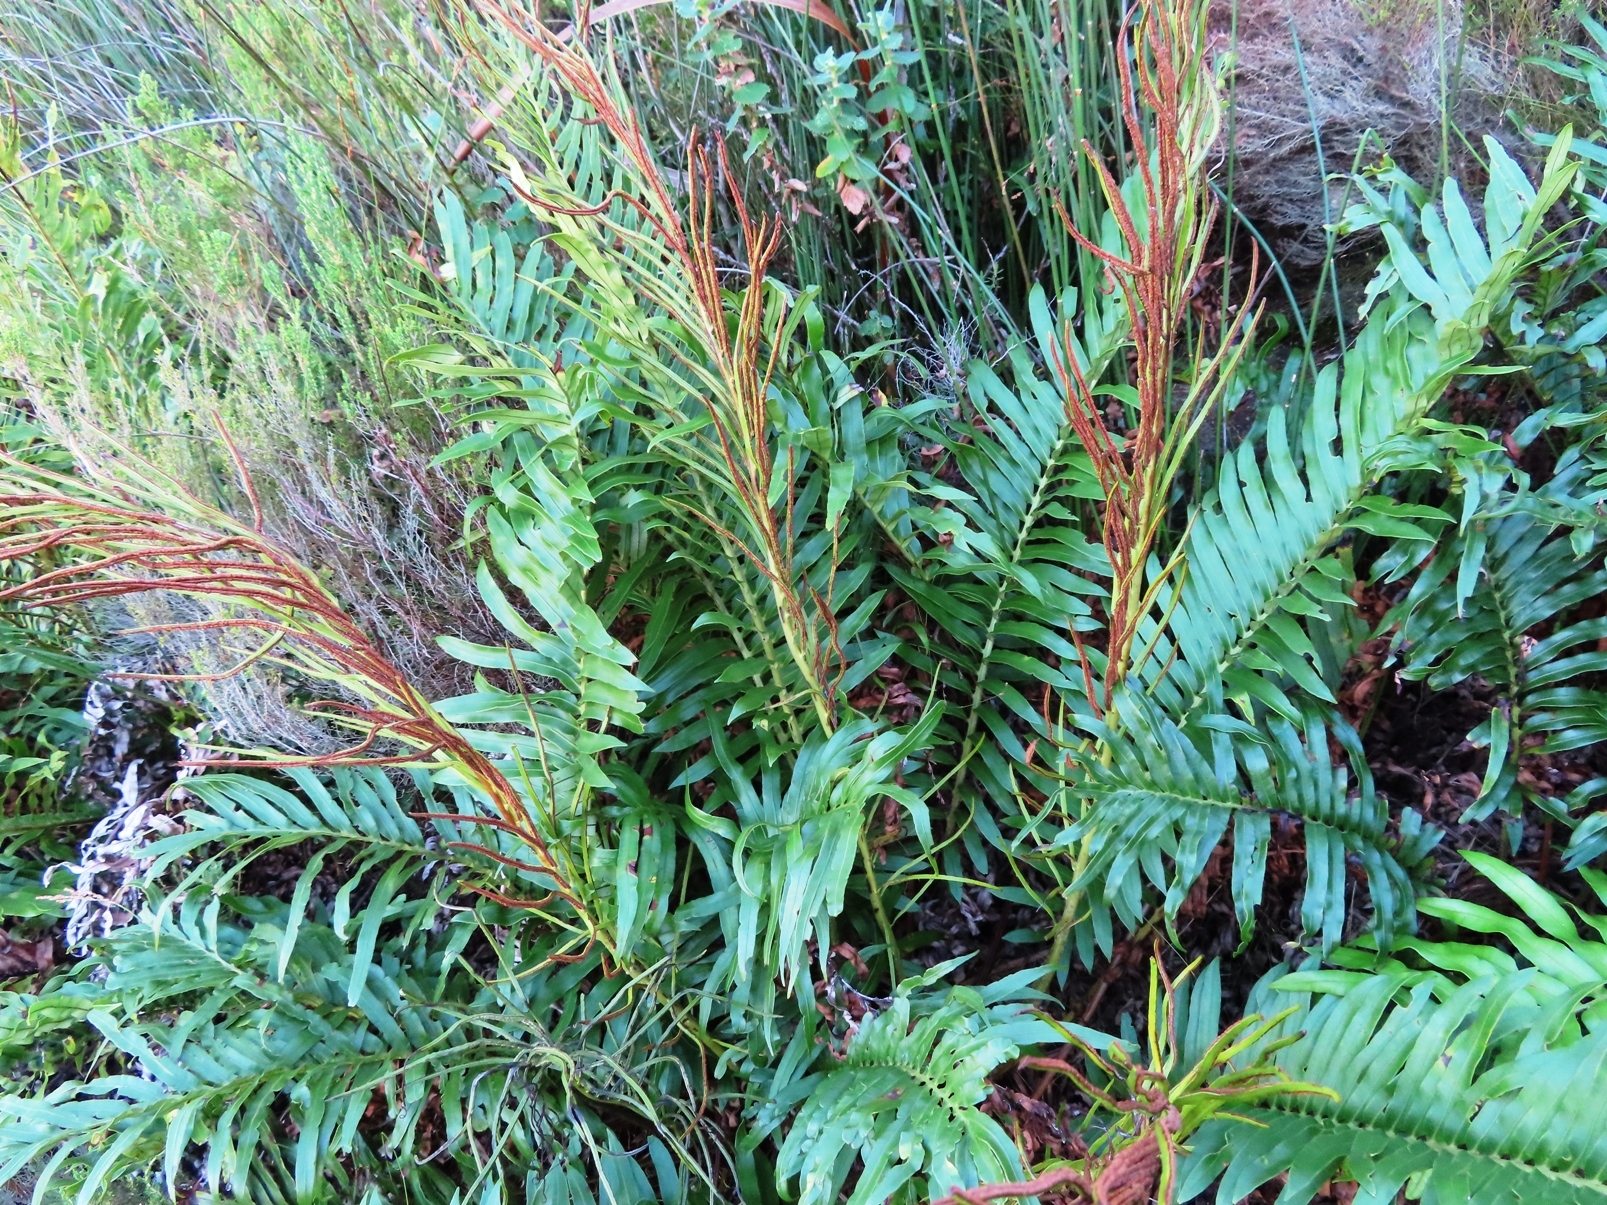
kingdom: Plantae
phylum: Tracheophyta
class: Polypodiopsida
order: Polypodiales
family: Blechnaceae
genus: Lomariocycas
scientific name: Lomariocycas tabularis
